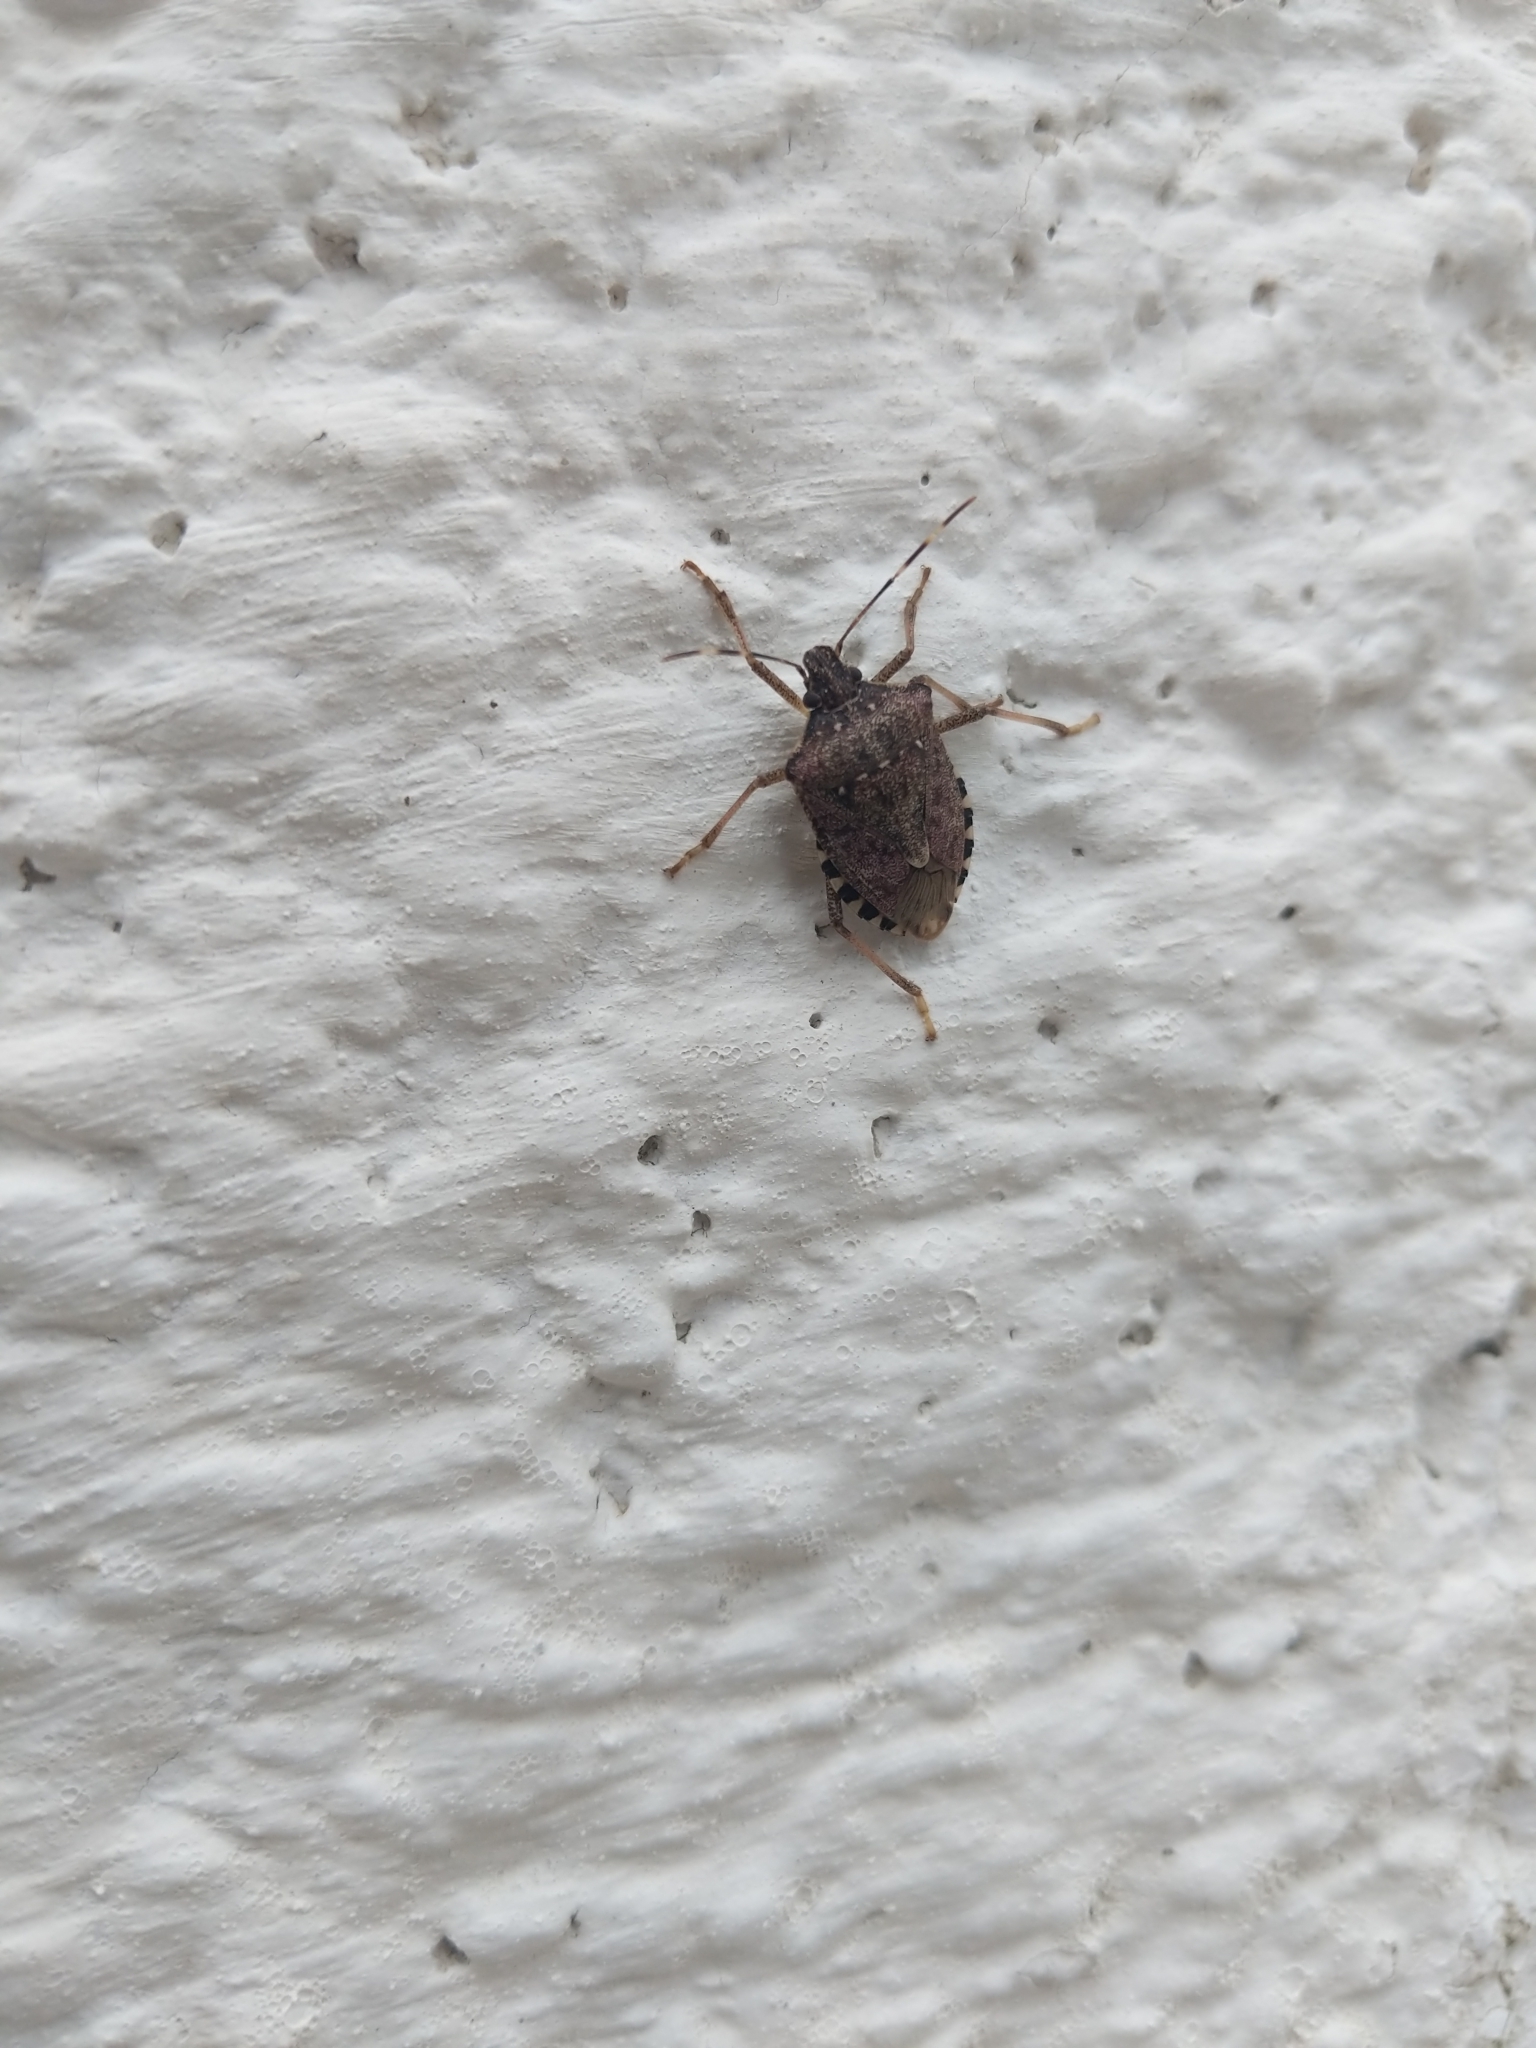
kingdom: Animalia
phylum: Arthropoda
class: Insecta
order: Hemiptera
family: Pentatomidae
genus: Halyomorpha
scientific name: Halyomorpha halys
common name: Brown marmorated stink bug
